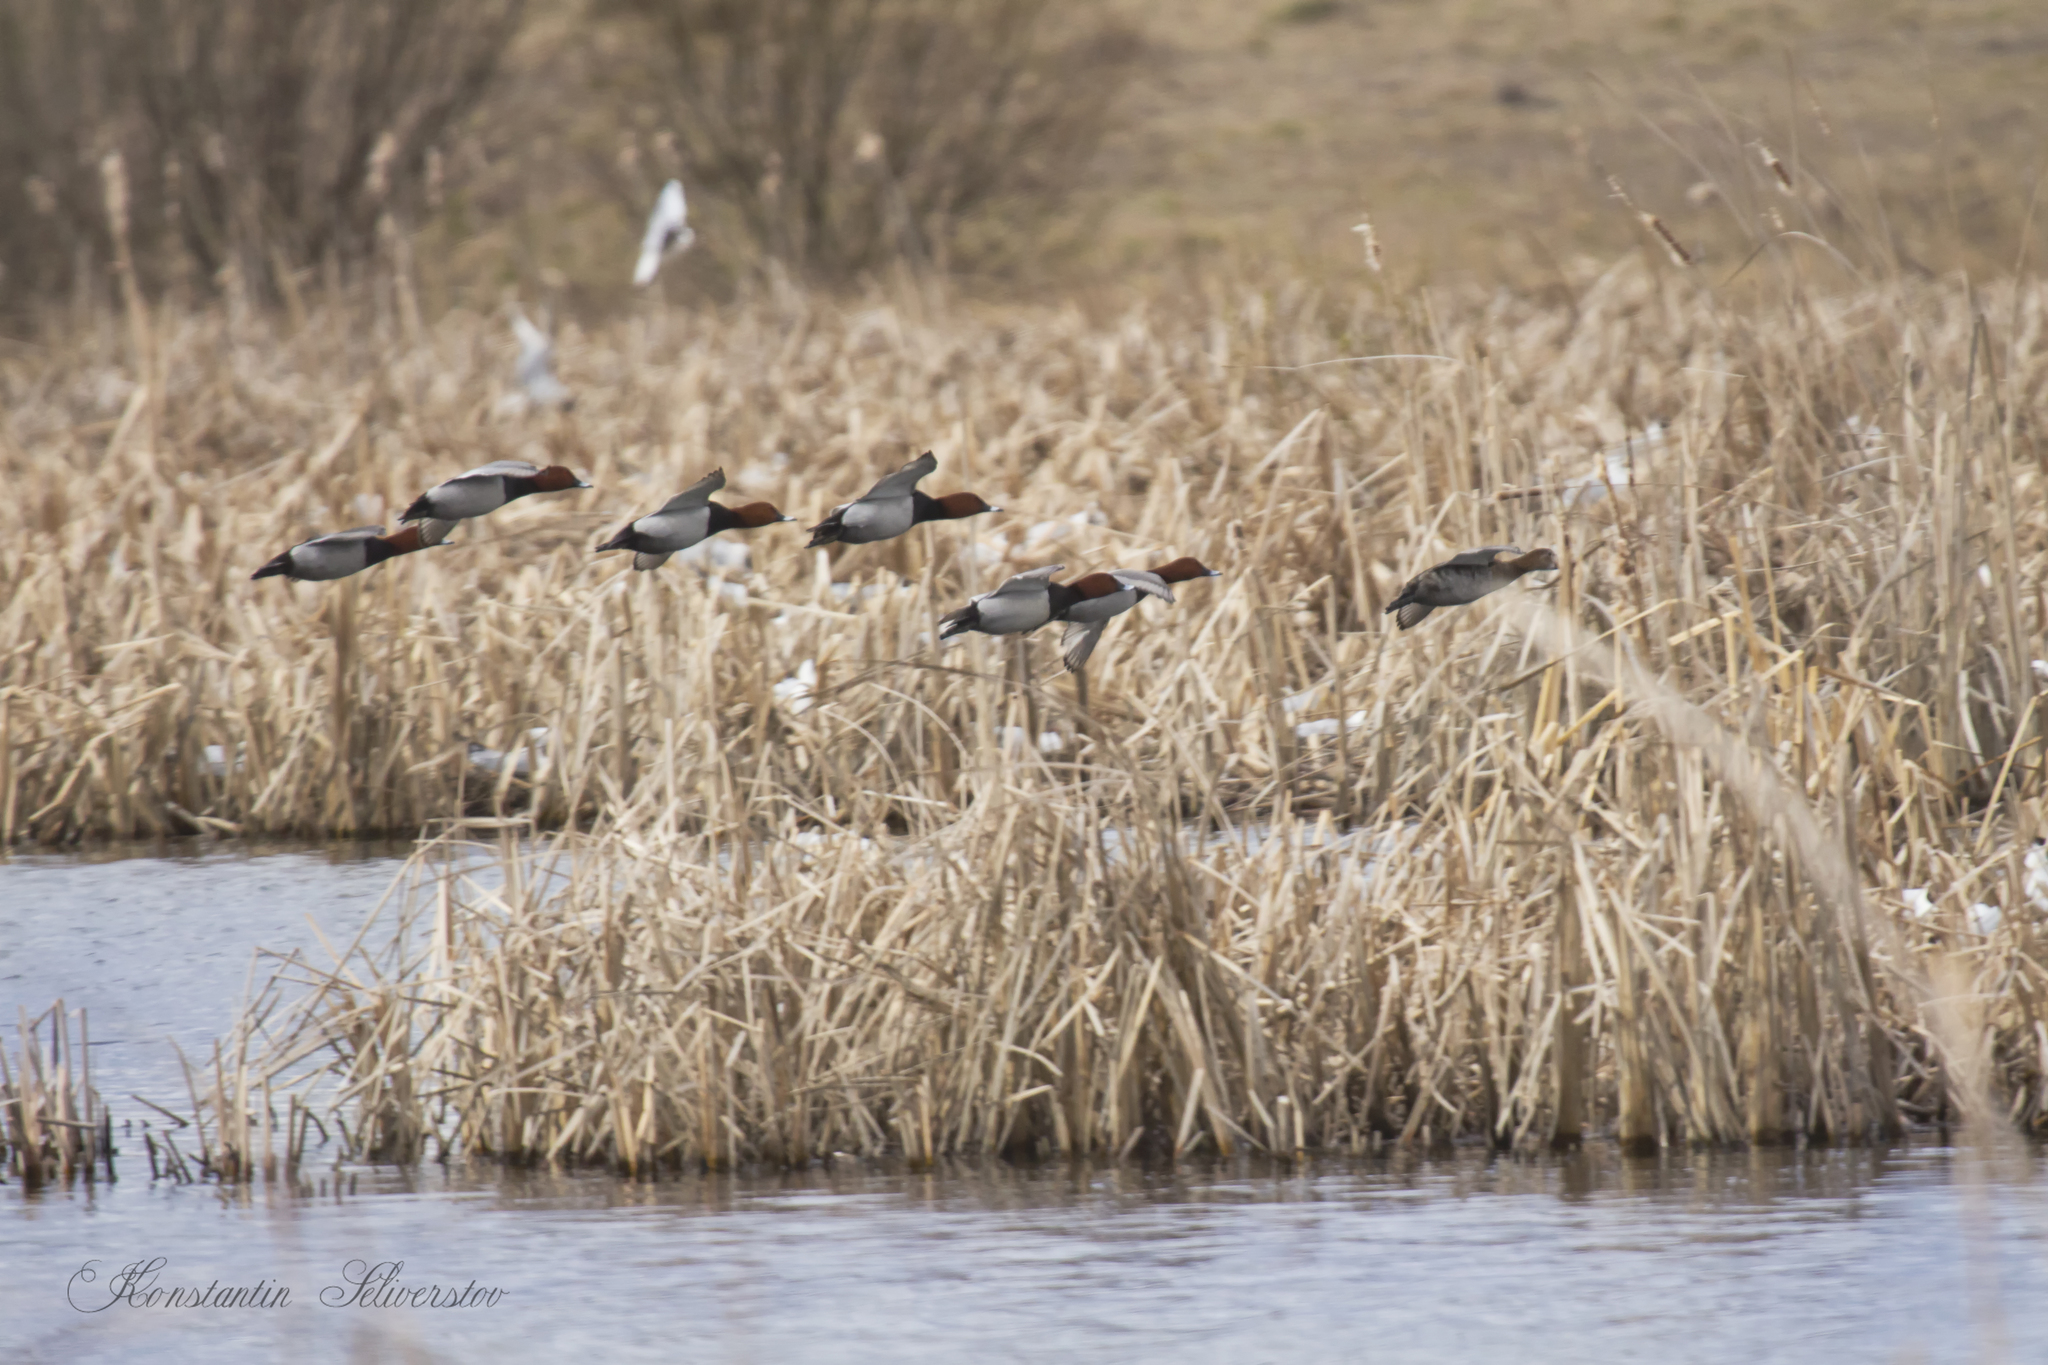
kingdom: Animalia
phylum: Chordata
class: Aves
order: Anseriformes
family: Anatidae
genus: Aythya
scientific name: Aythya ferina
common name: Common pochard
